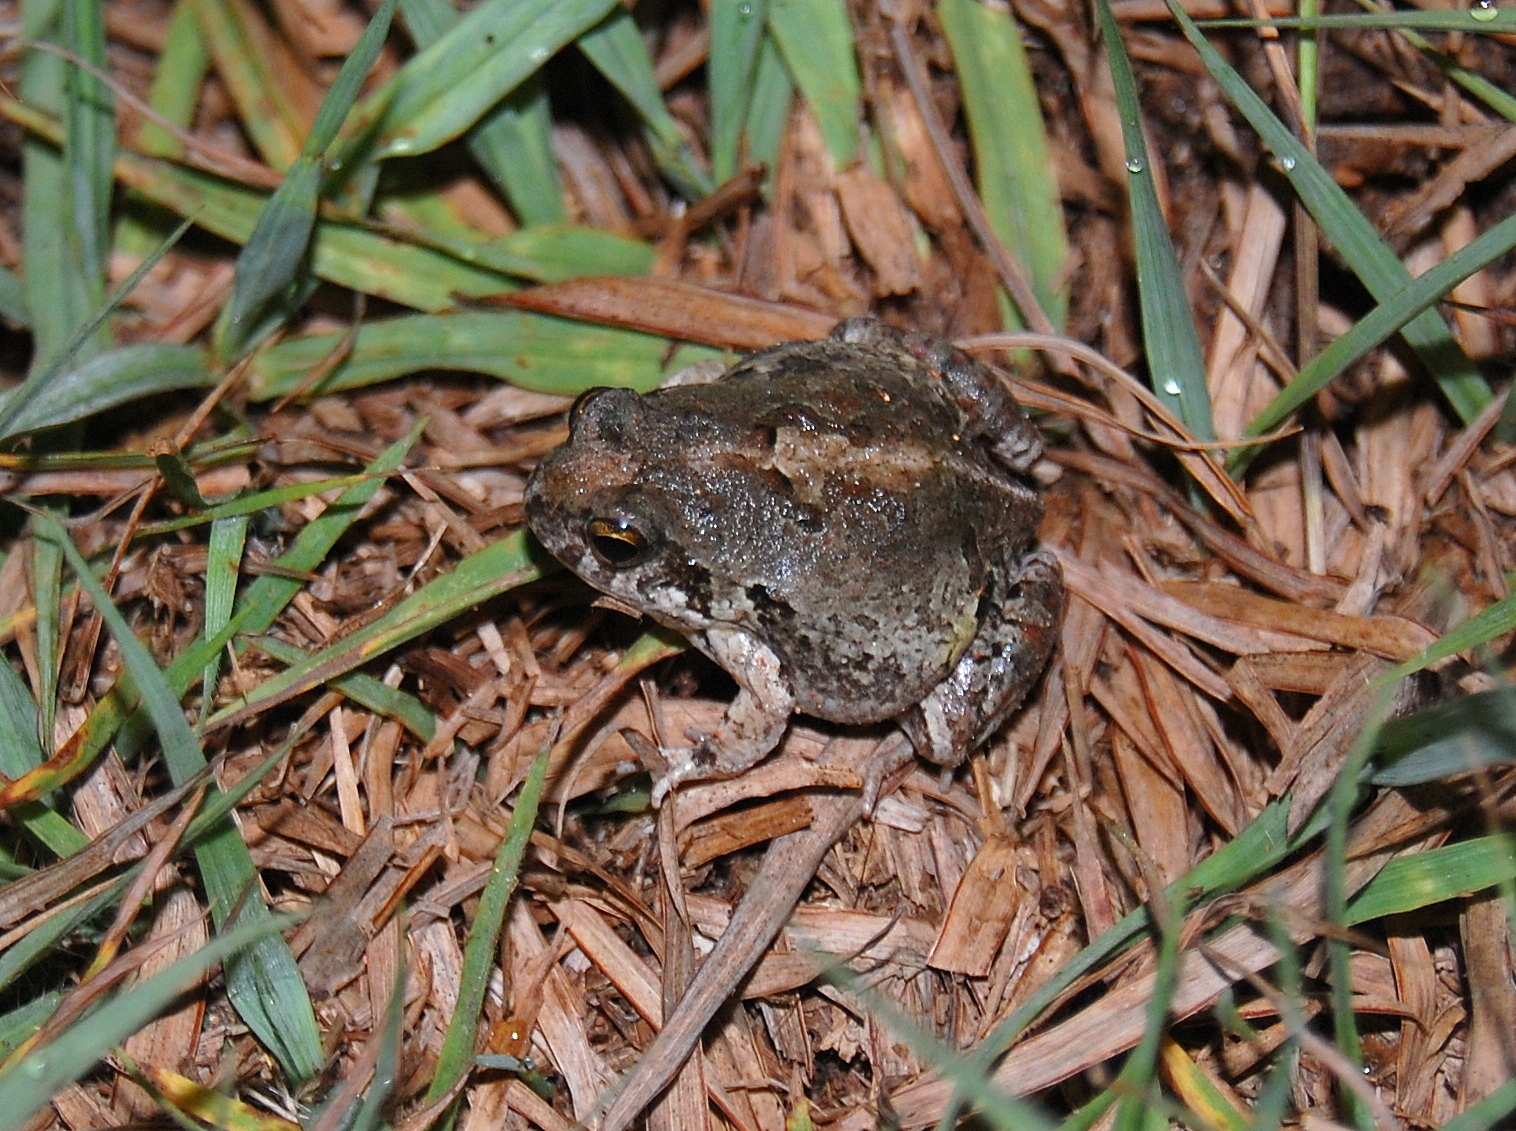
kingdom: Animalia
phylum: Chordata
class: Amphibia
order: Anura
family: Leptodactylidae
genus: Physalaemus
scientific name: Physalaemus biligonigerus
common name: Weeping frog
